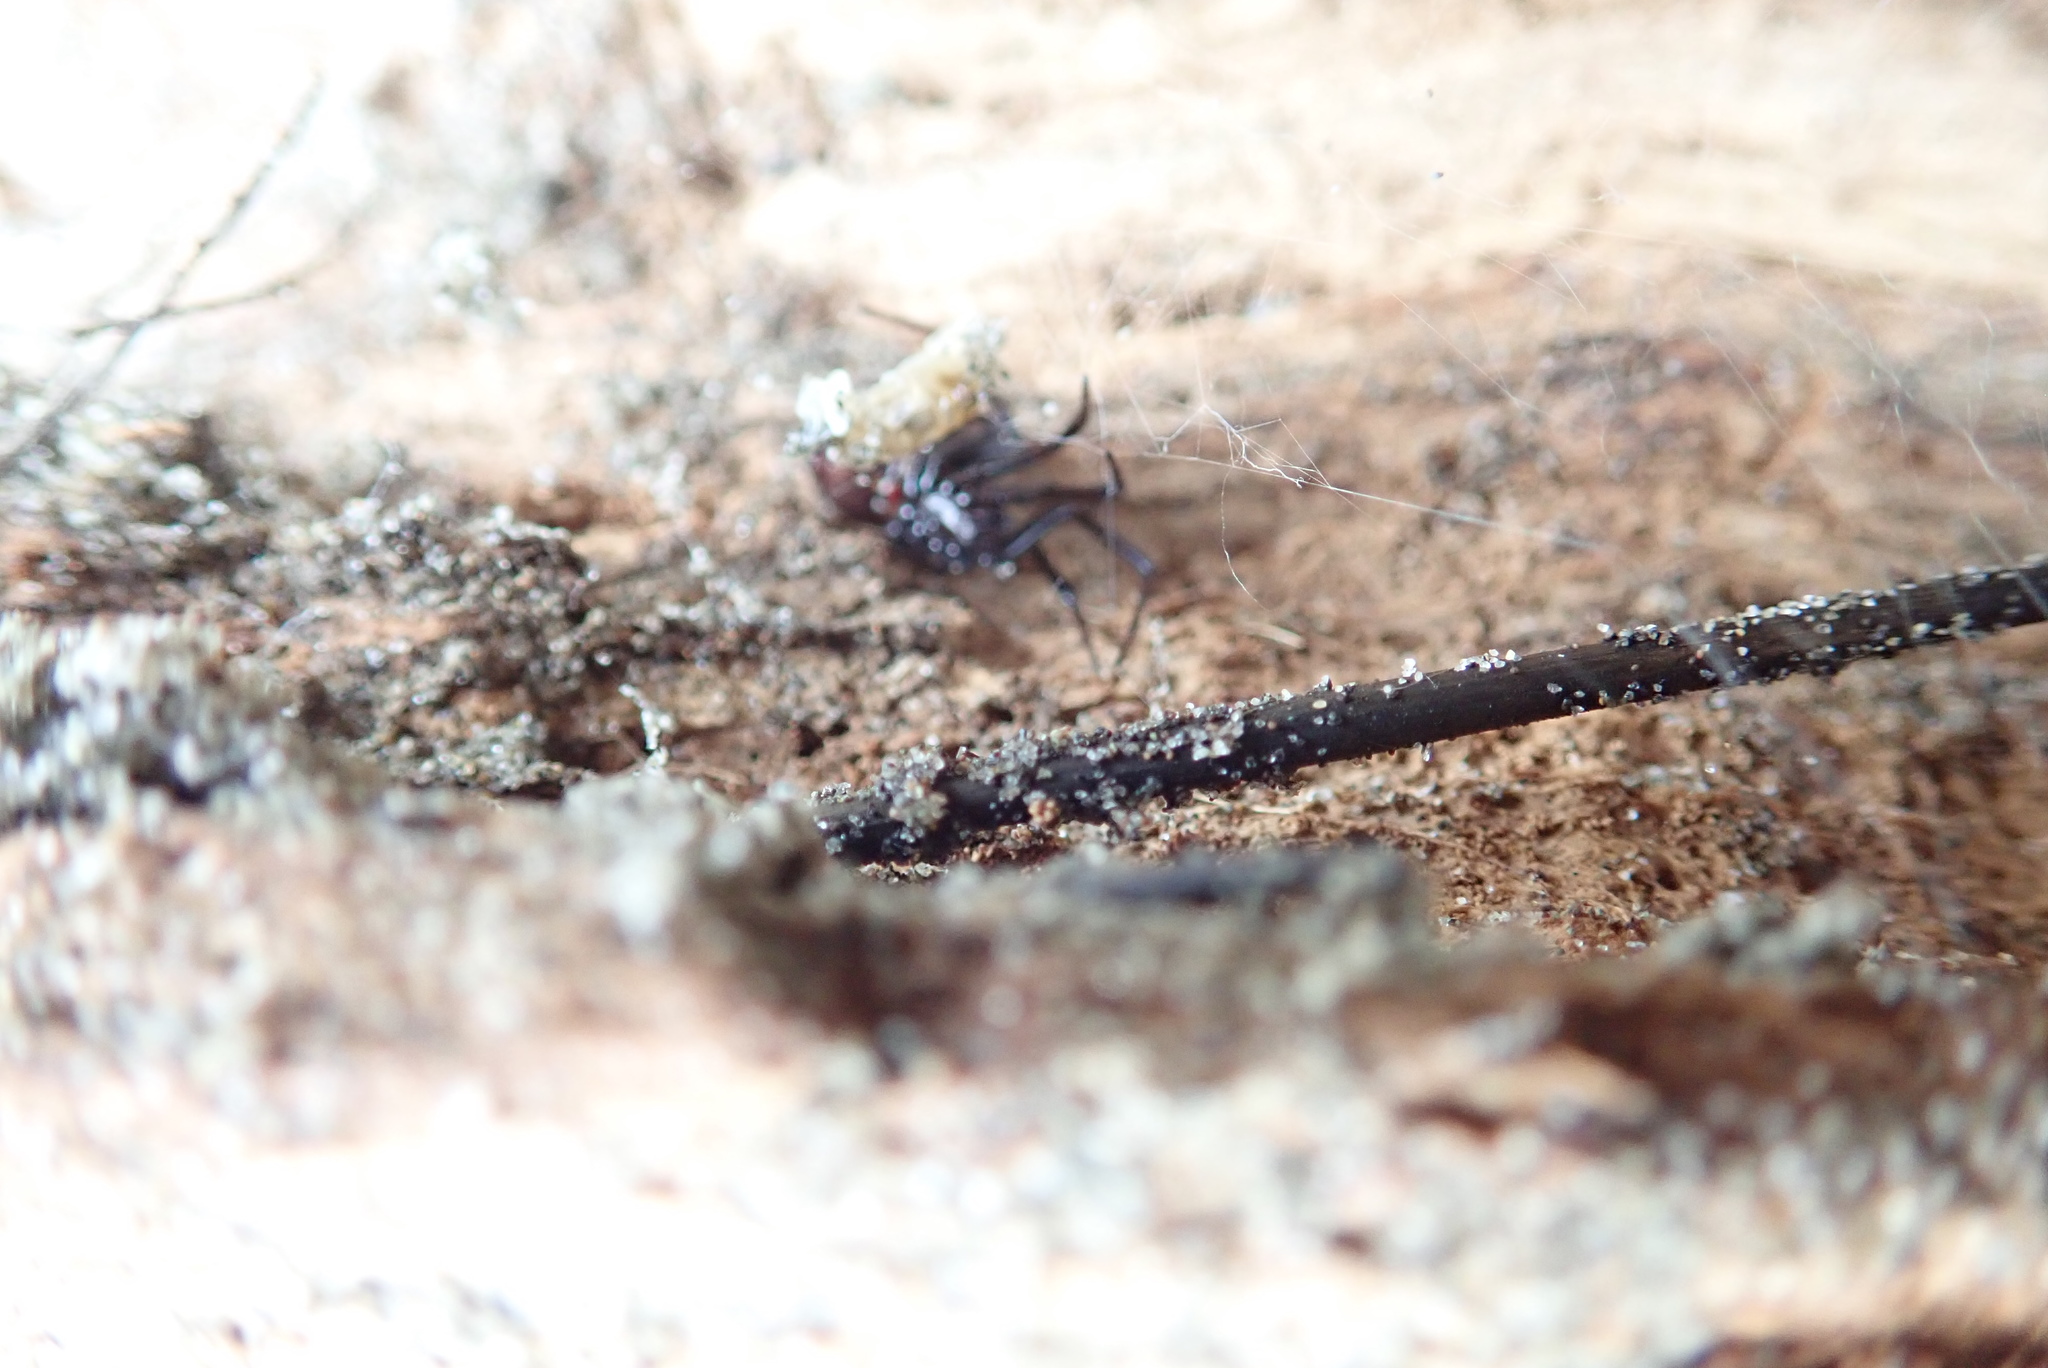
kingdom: Animalia
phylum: Arthropoda
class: Arachnida
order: Araneae
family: Theridiidae
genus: Steatoda
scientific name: Steatoda capensis
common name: Cobweb weaver
